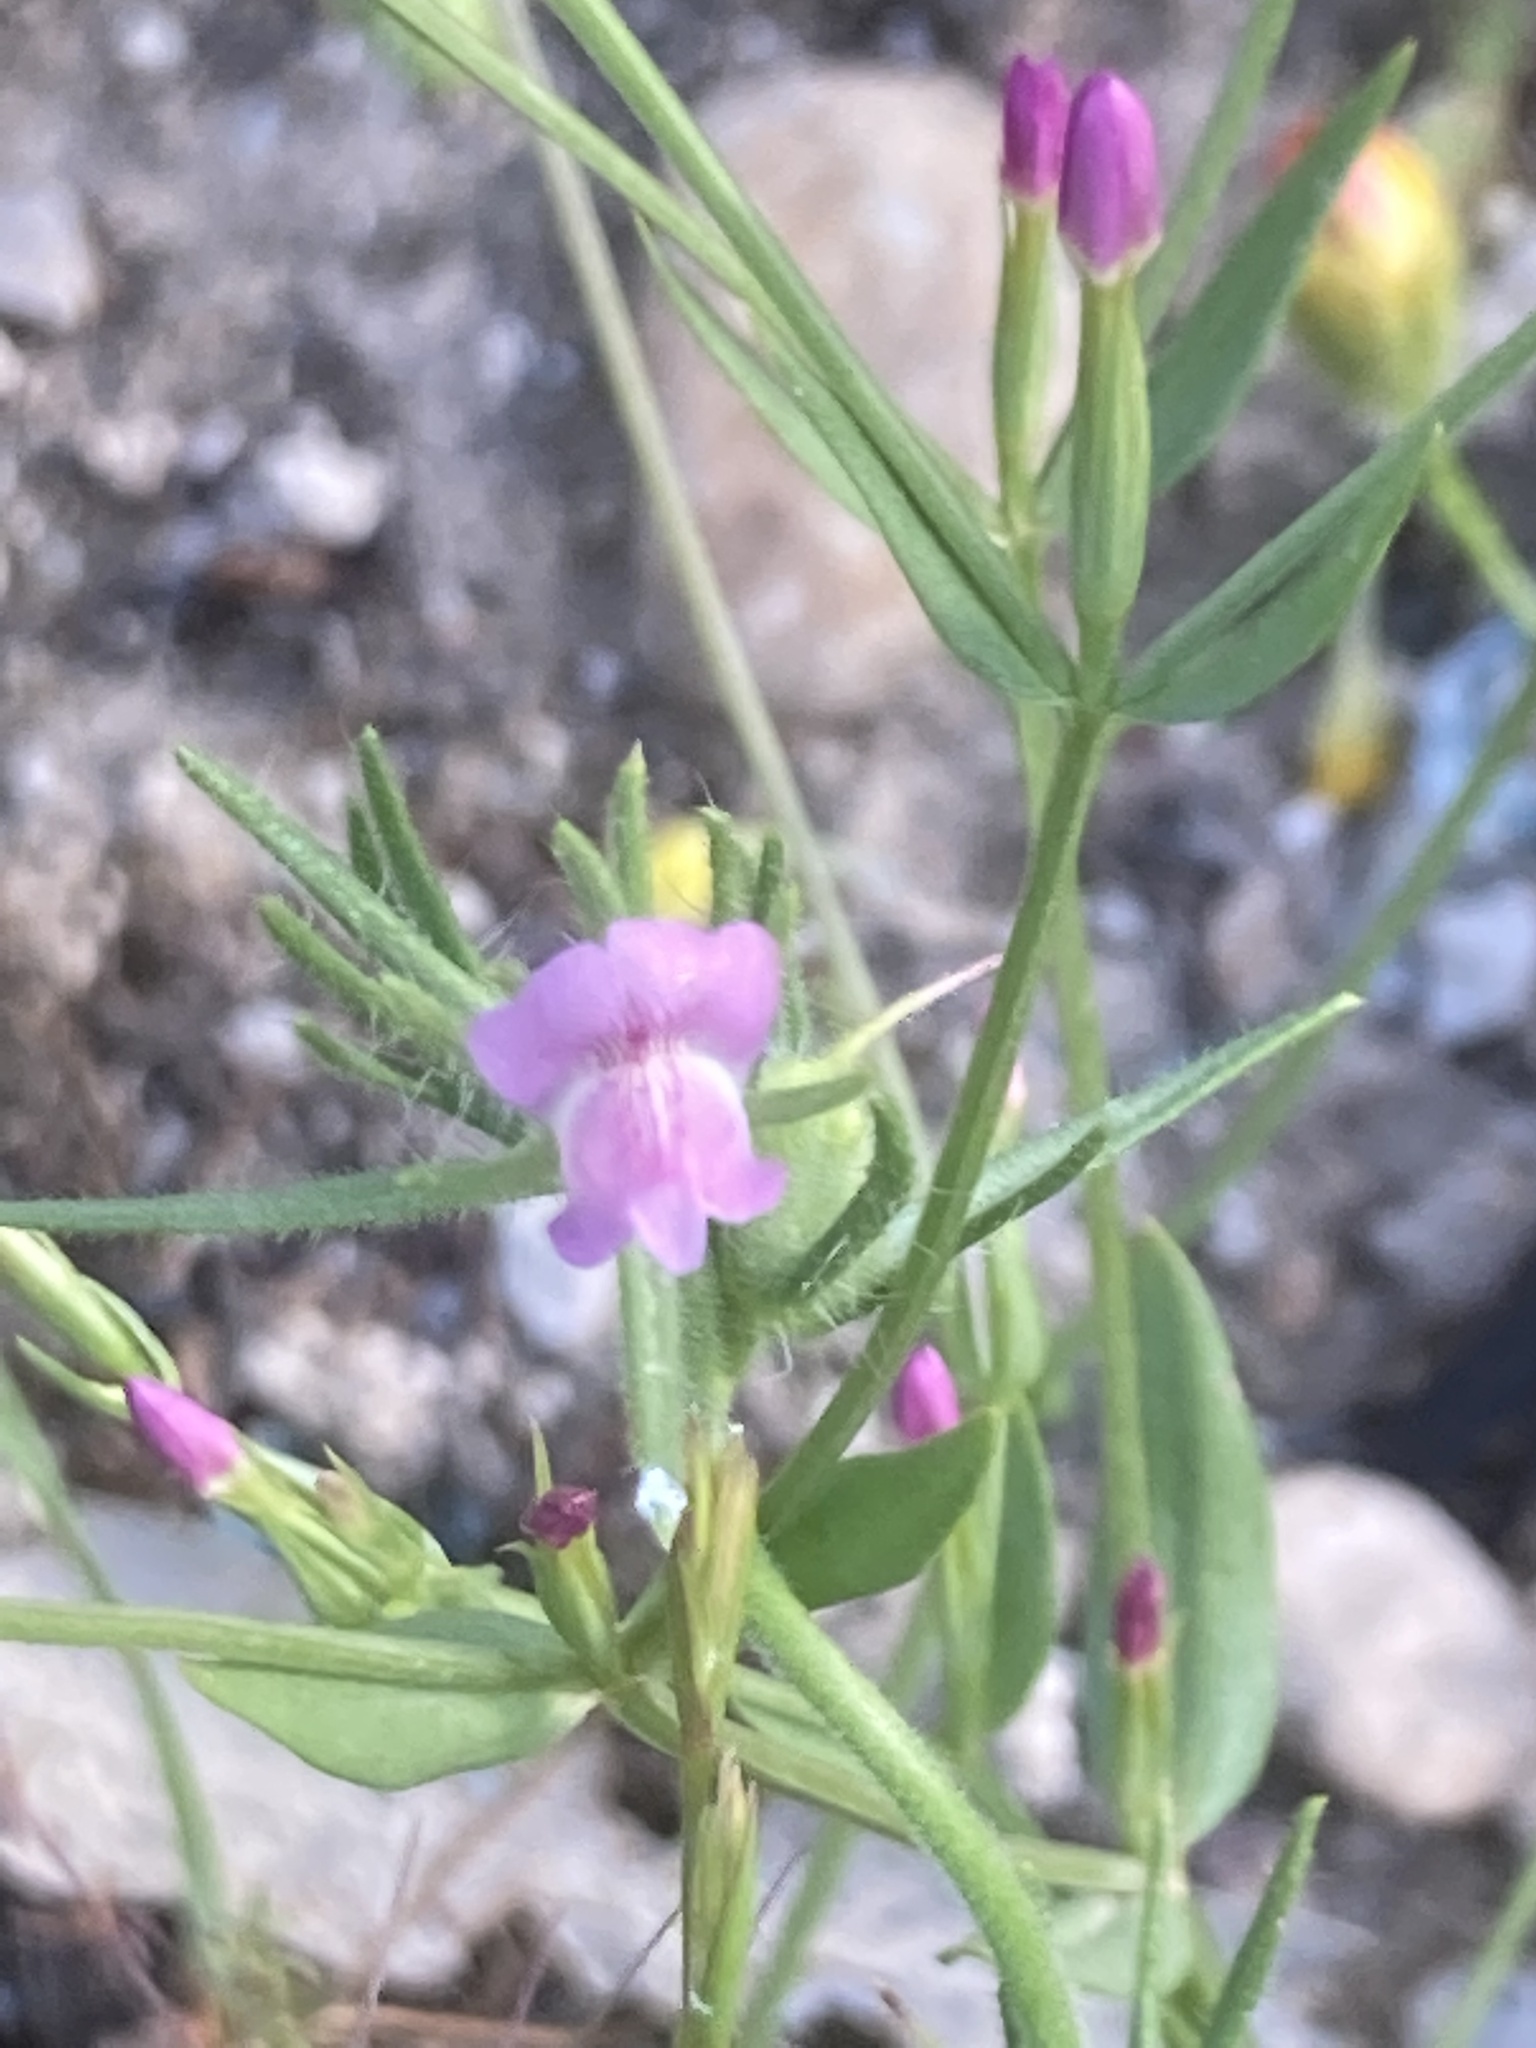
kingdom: Plantae
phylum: Tracheophyta
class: Magnoliopsida
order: Lamiales
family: Plantaginaceae
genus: Misopates
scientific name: Misopates orontium
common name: Weasel's-snout
